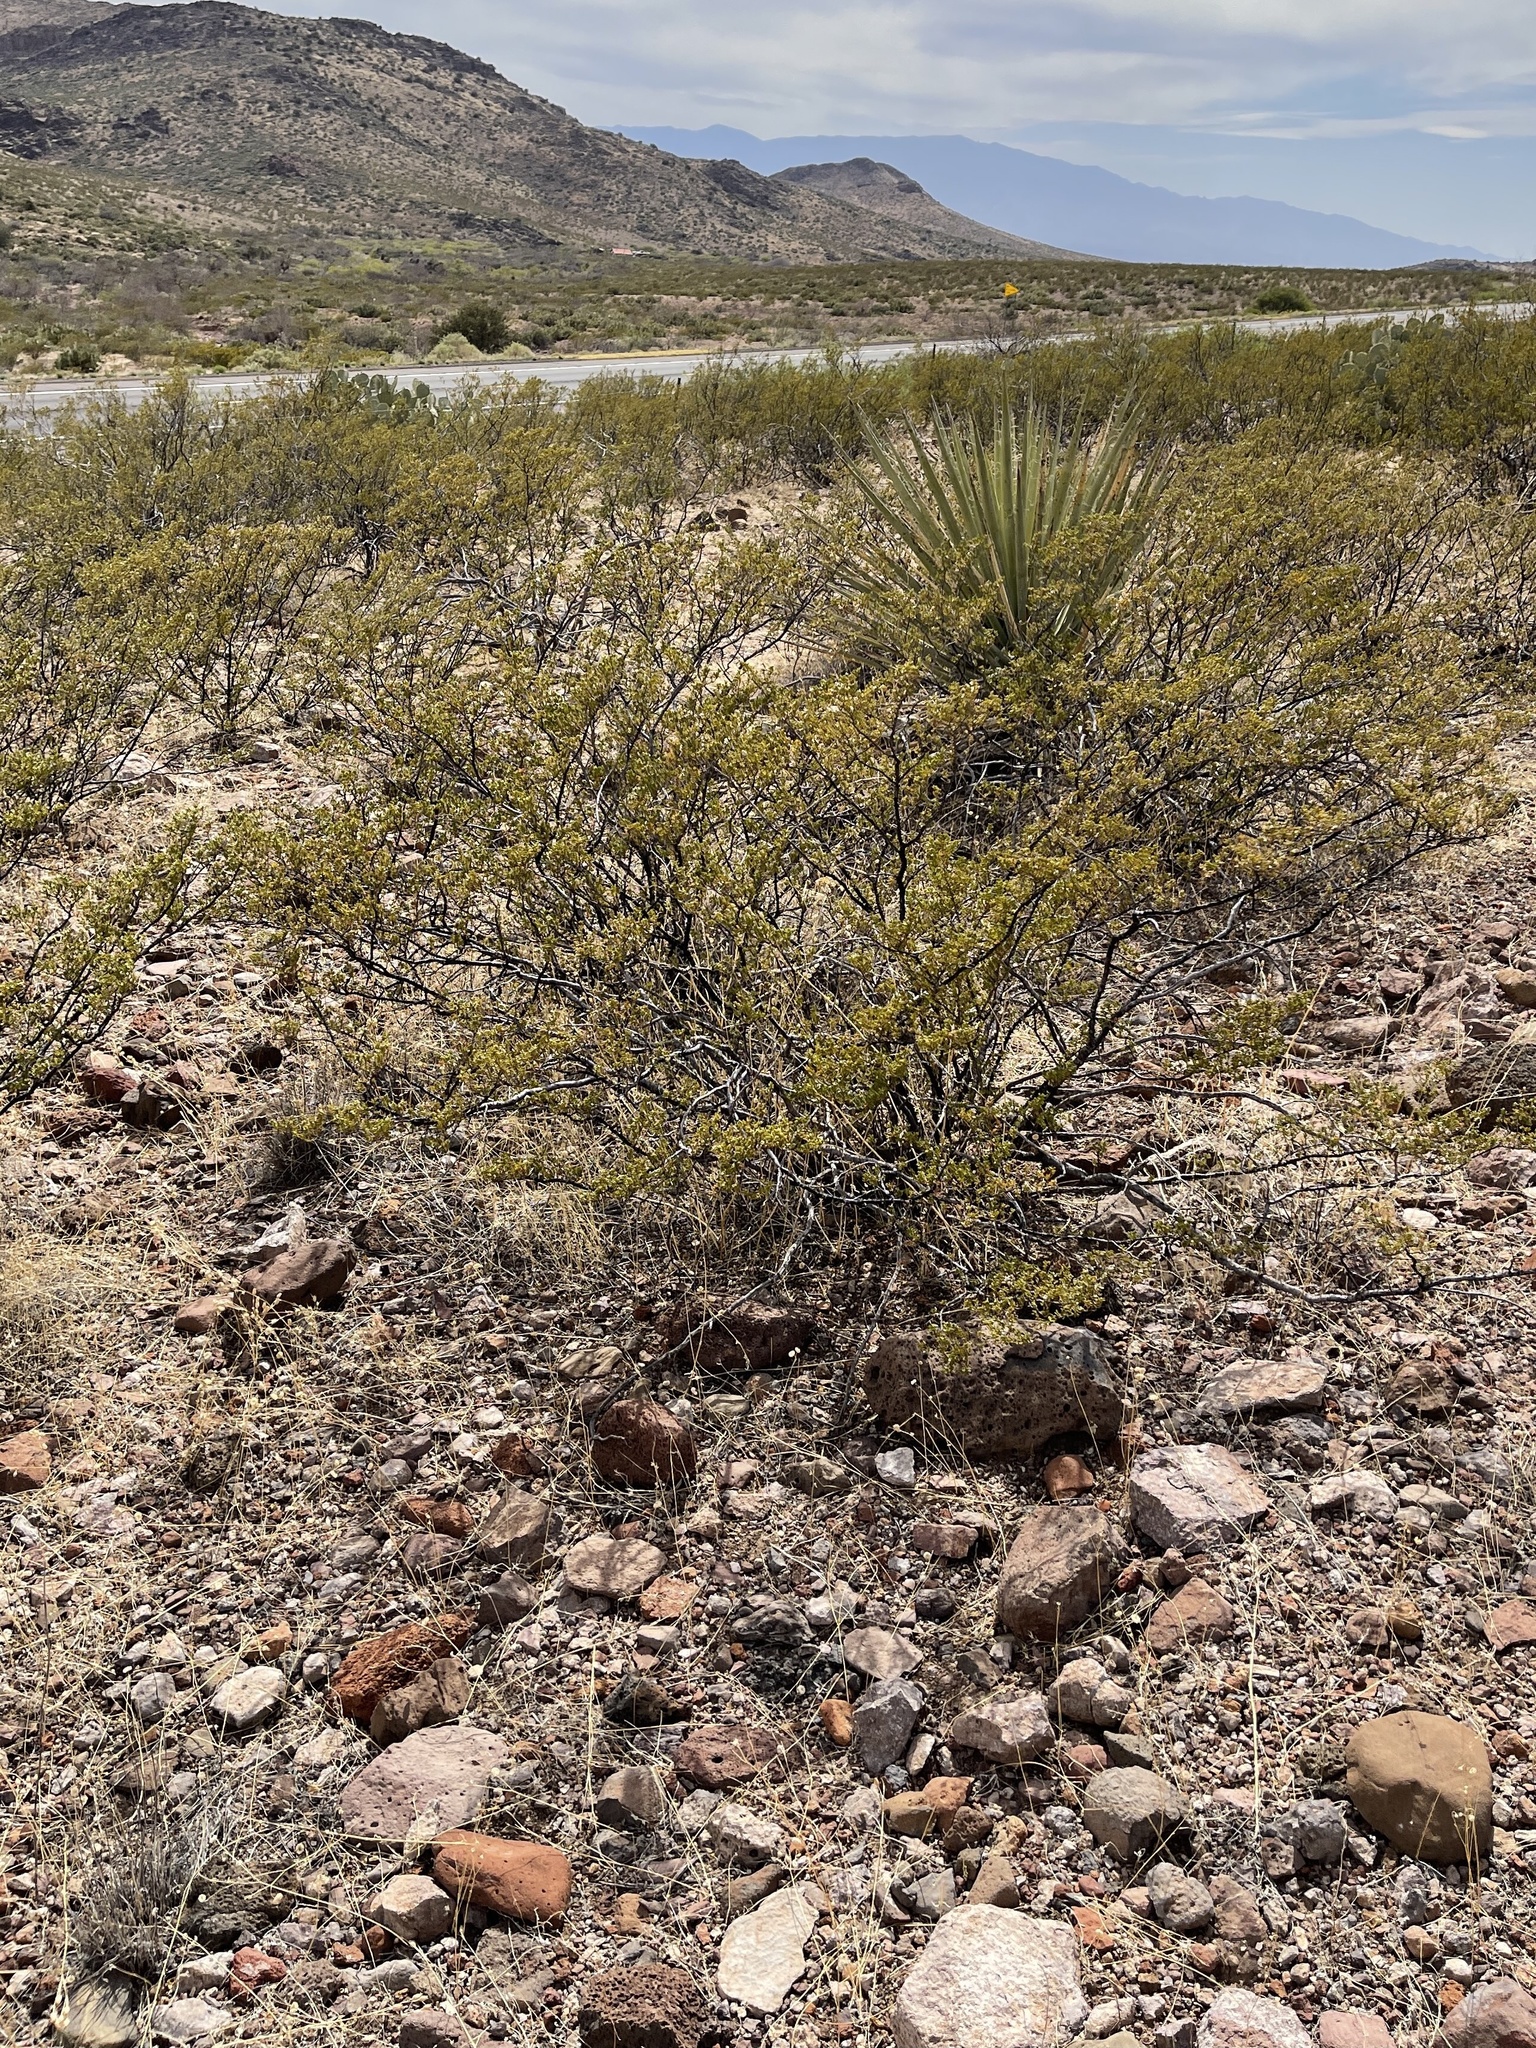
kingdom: Plantae
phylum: Tracheophyta
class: Magnoliopsida
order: Zygophyllales
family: Zygophyllaceae
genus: Larrea
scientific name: Larrea tridentata
